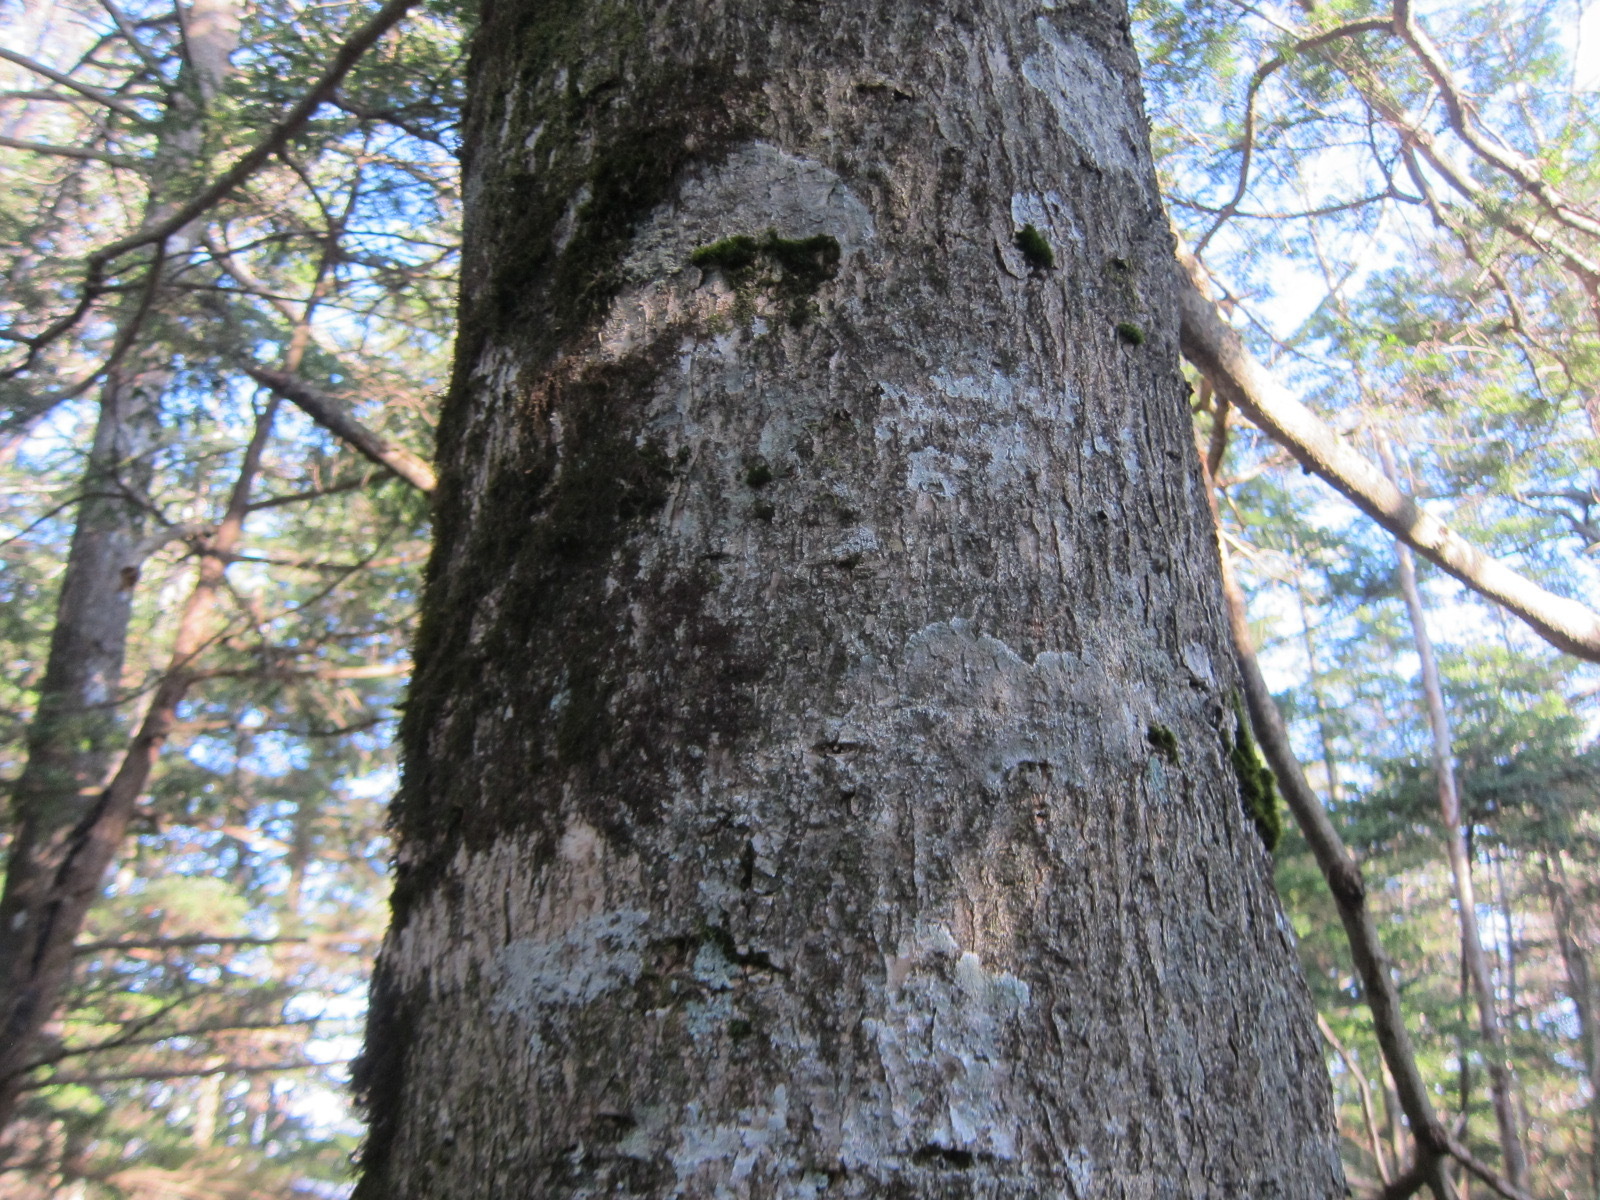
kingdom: Plantae
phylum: Tracheophyta
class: Pinopsida
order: Pinales
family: Pinaceae
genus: Abies
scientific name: Abies veitchii
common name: Veitch’s fir
